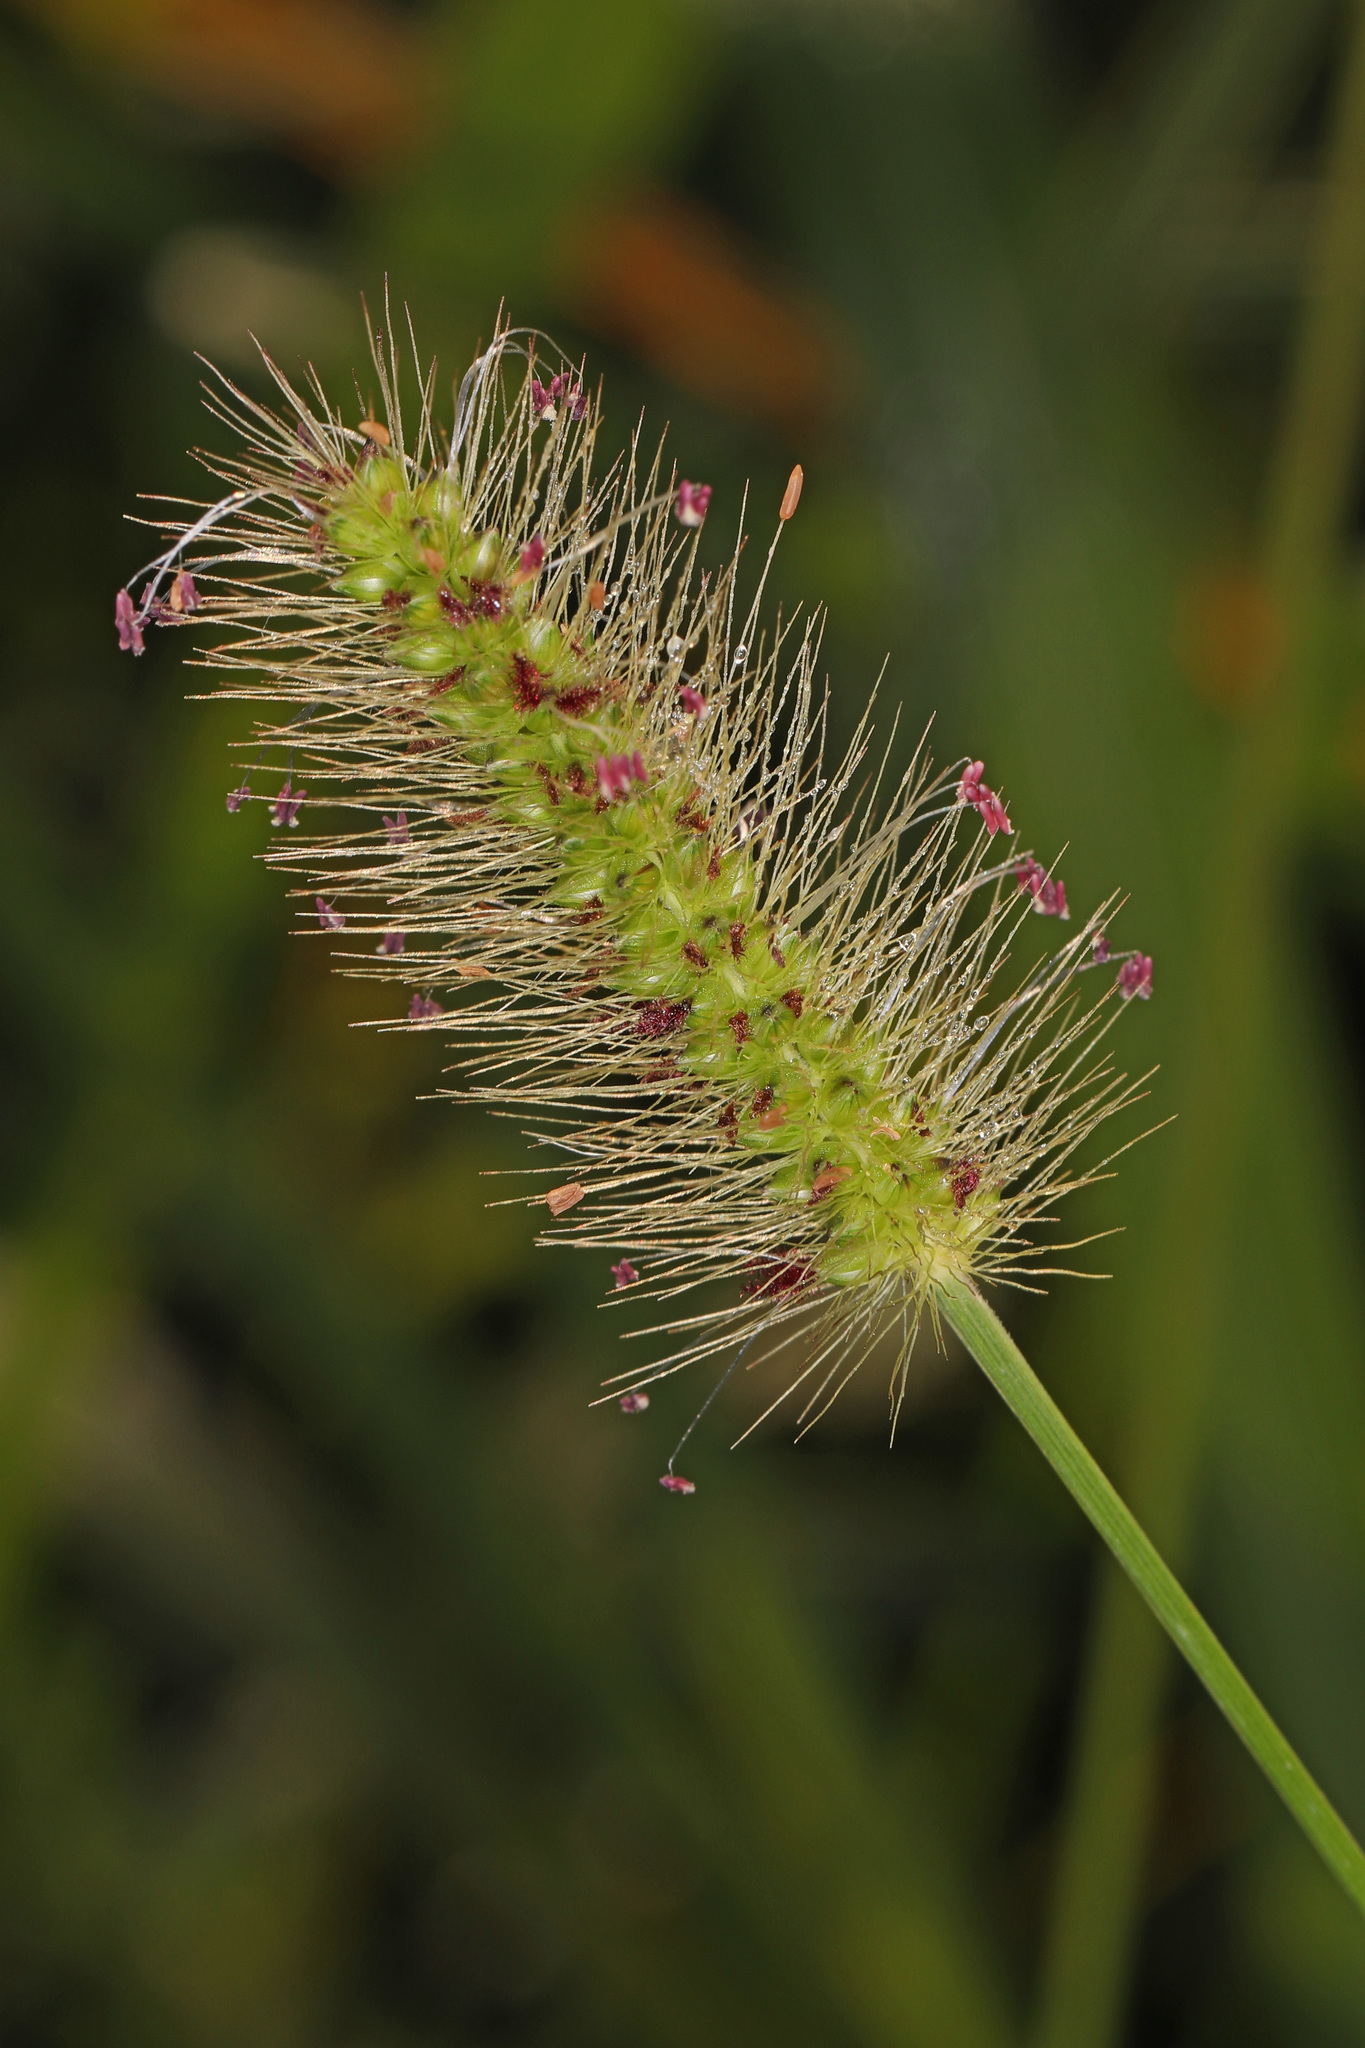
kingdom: Plantae
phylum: Tracheophyta
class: Liliopsida
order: Poales
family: Poaceae
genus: Setaria
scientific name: Setaria parviflora
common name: Knotroot bristle-grass
